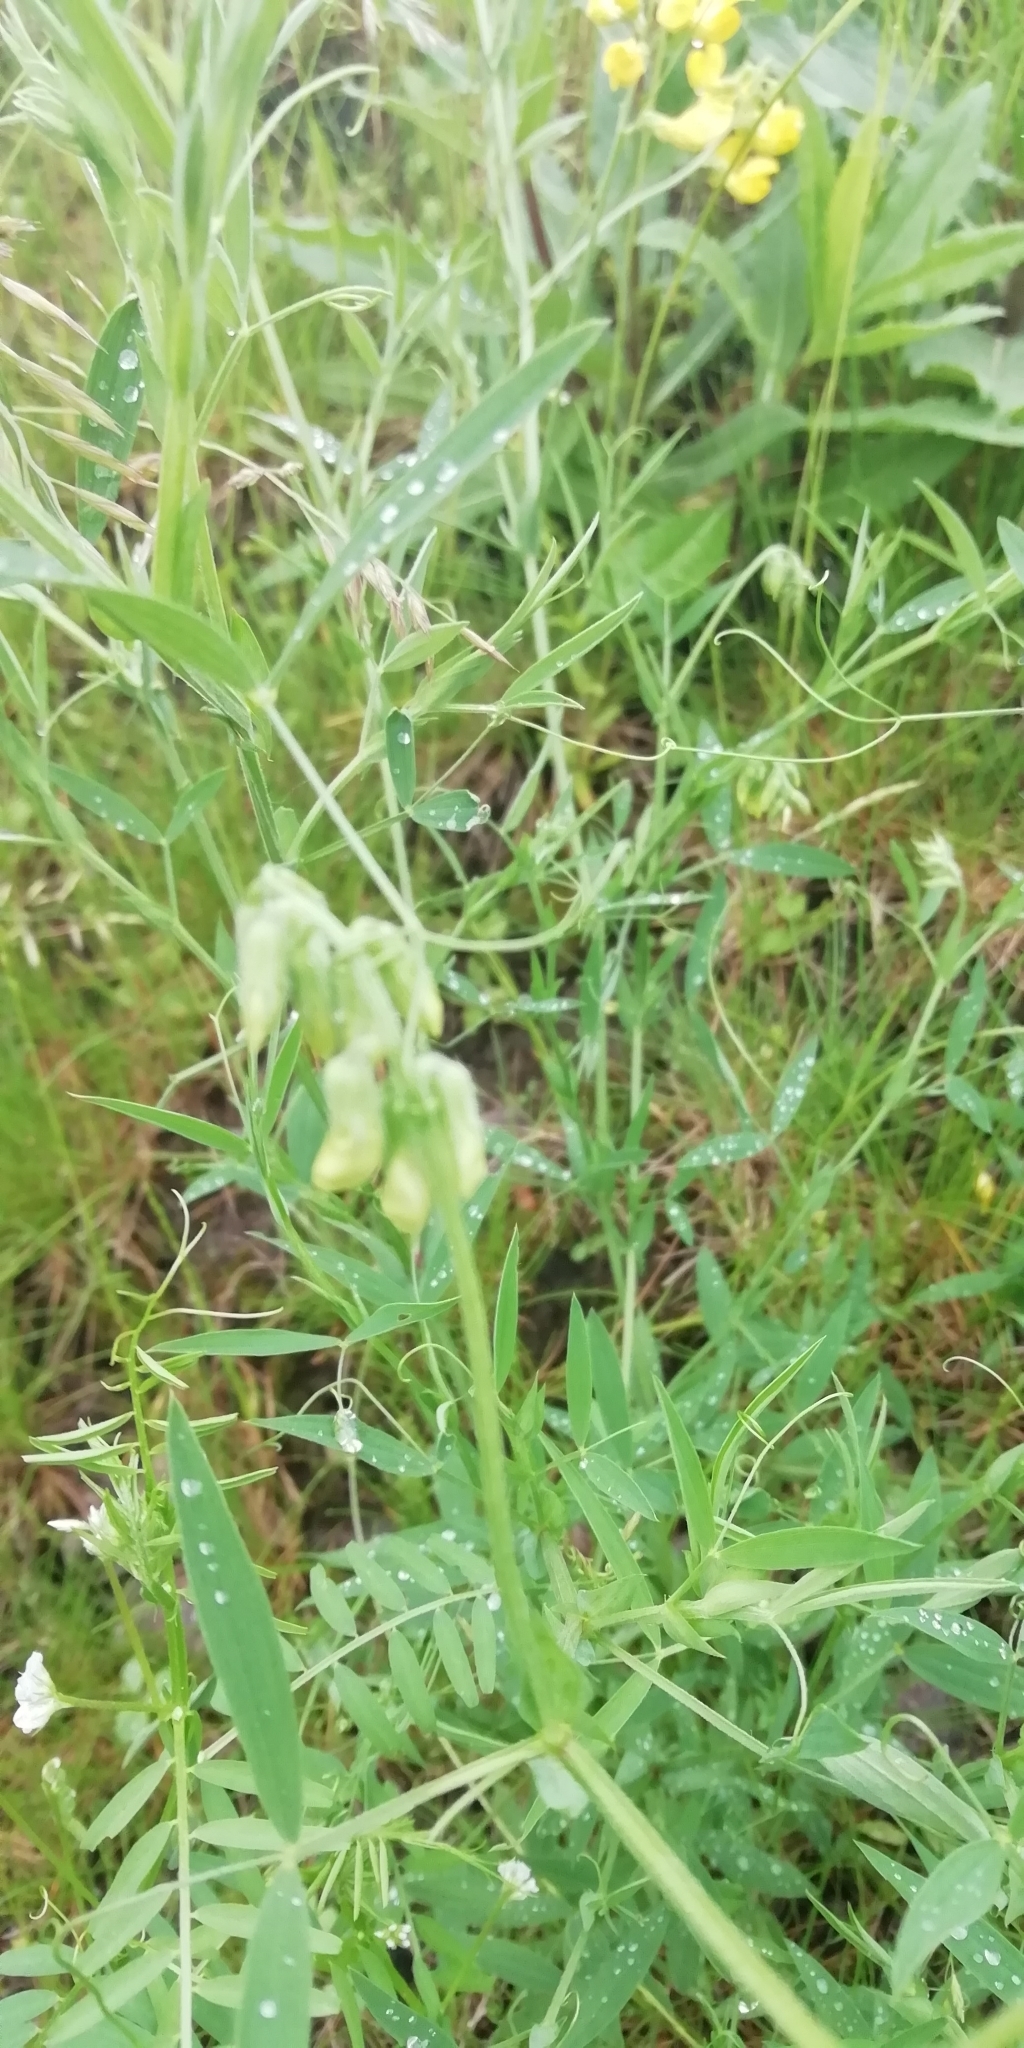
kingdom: Plantae
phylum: Tracheophyta
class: Magnoliopsida
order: Fabales
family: Fabaceae
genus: Lathyrus
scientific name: Lathyrus pratensis
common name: Meadow vetchling
